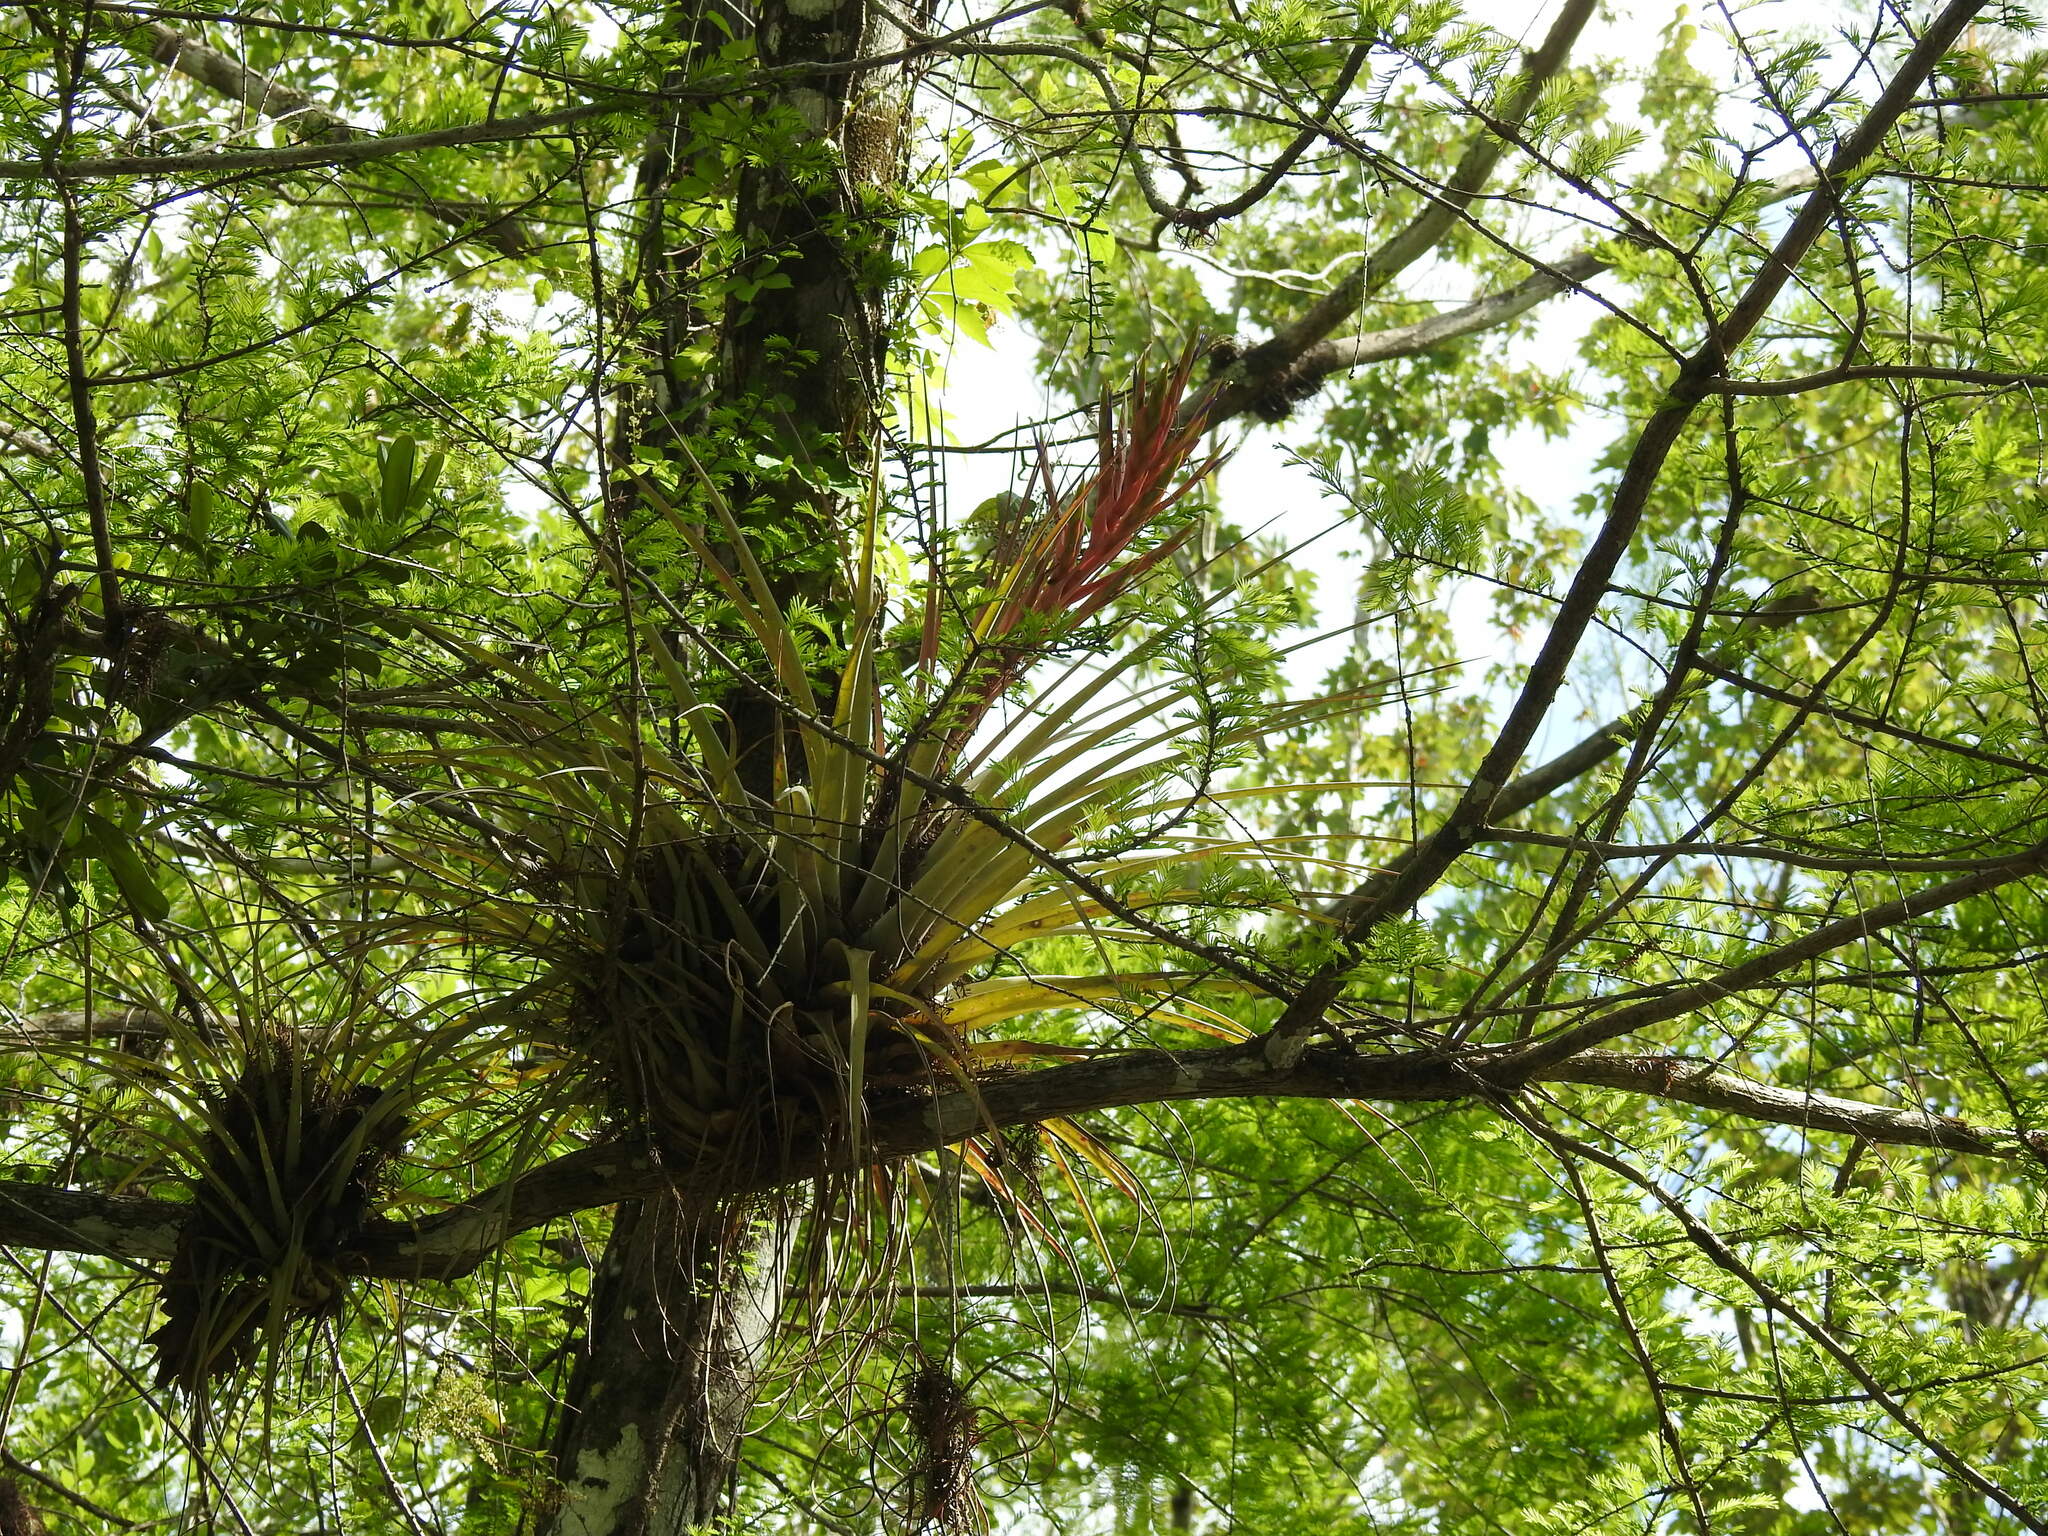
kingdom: Plantae
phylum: Tracheophyta
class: Liliopsida
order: Poales
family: Bromeliaceae
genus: Tillandsia
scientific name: Tillandsia fasciculata
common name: Giant airplant
